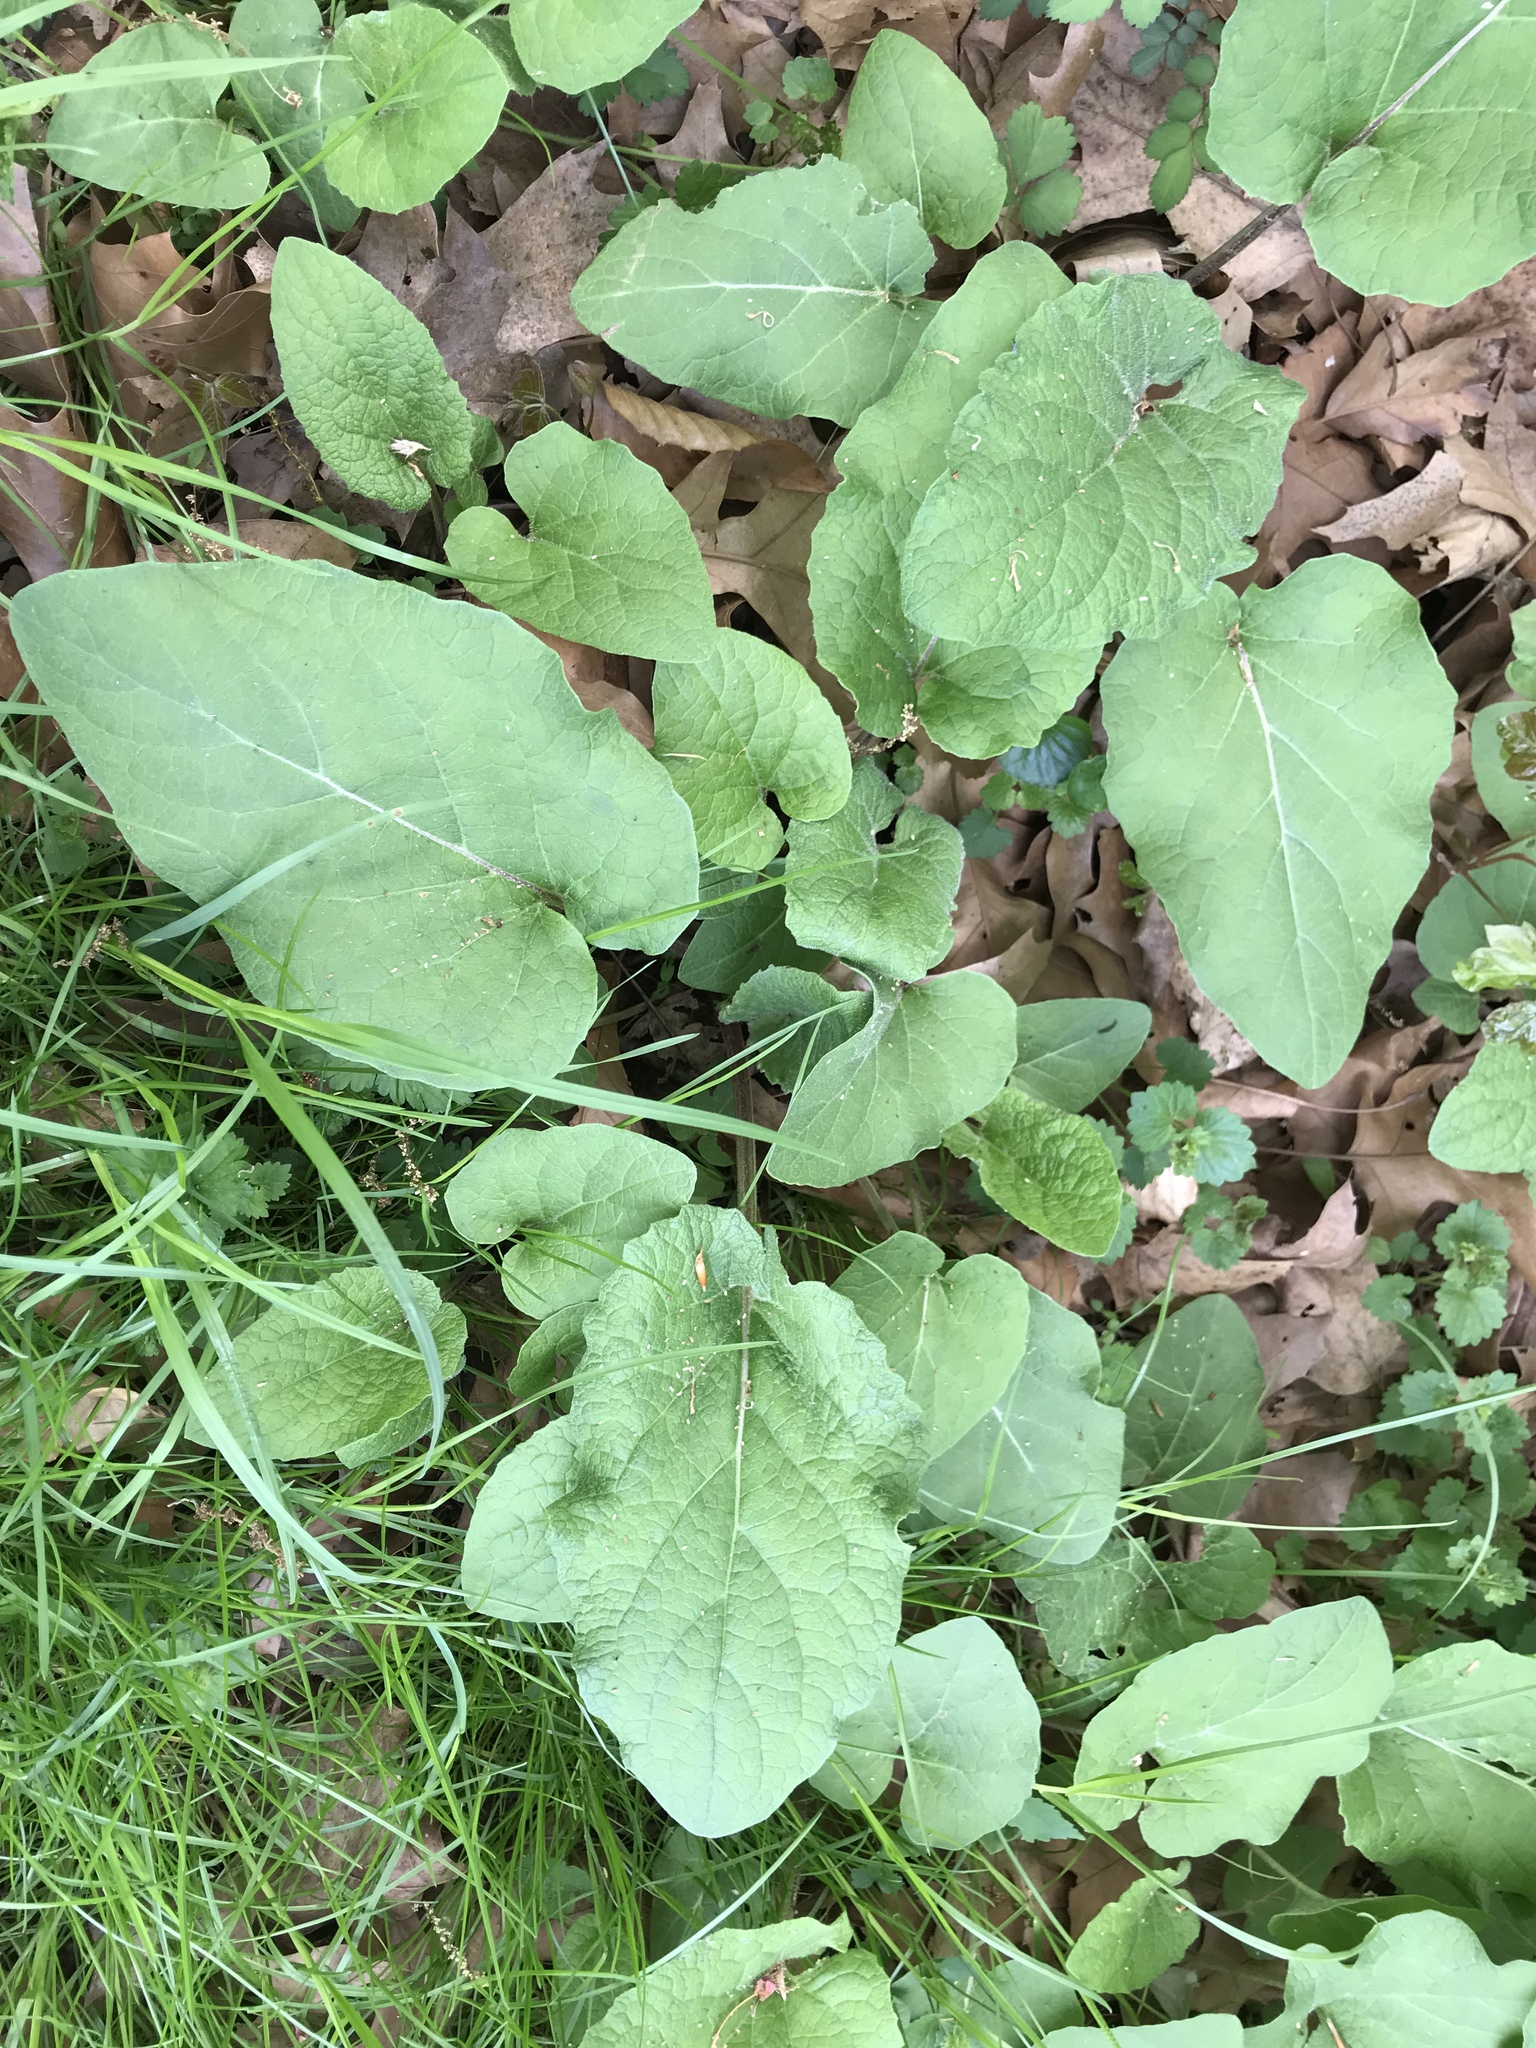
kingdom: Plantae
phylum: Tracheophyta
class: Magnoliopsida
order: Asterales
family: Asteraceae
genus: Arctium
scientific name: Arctium
